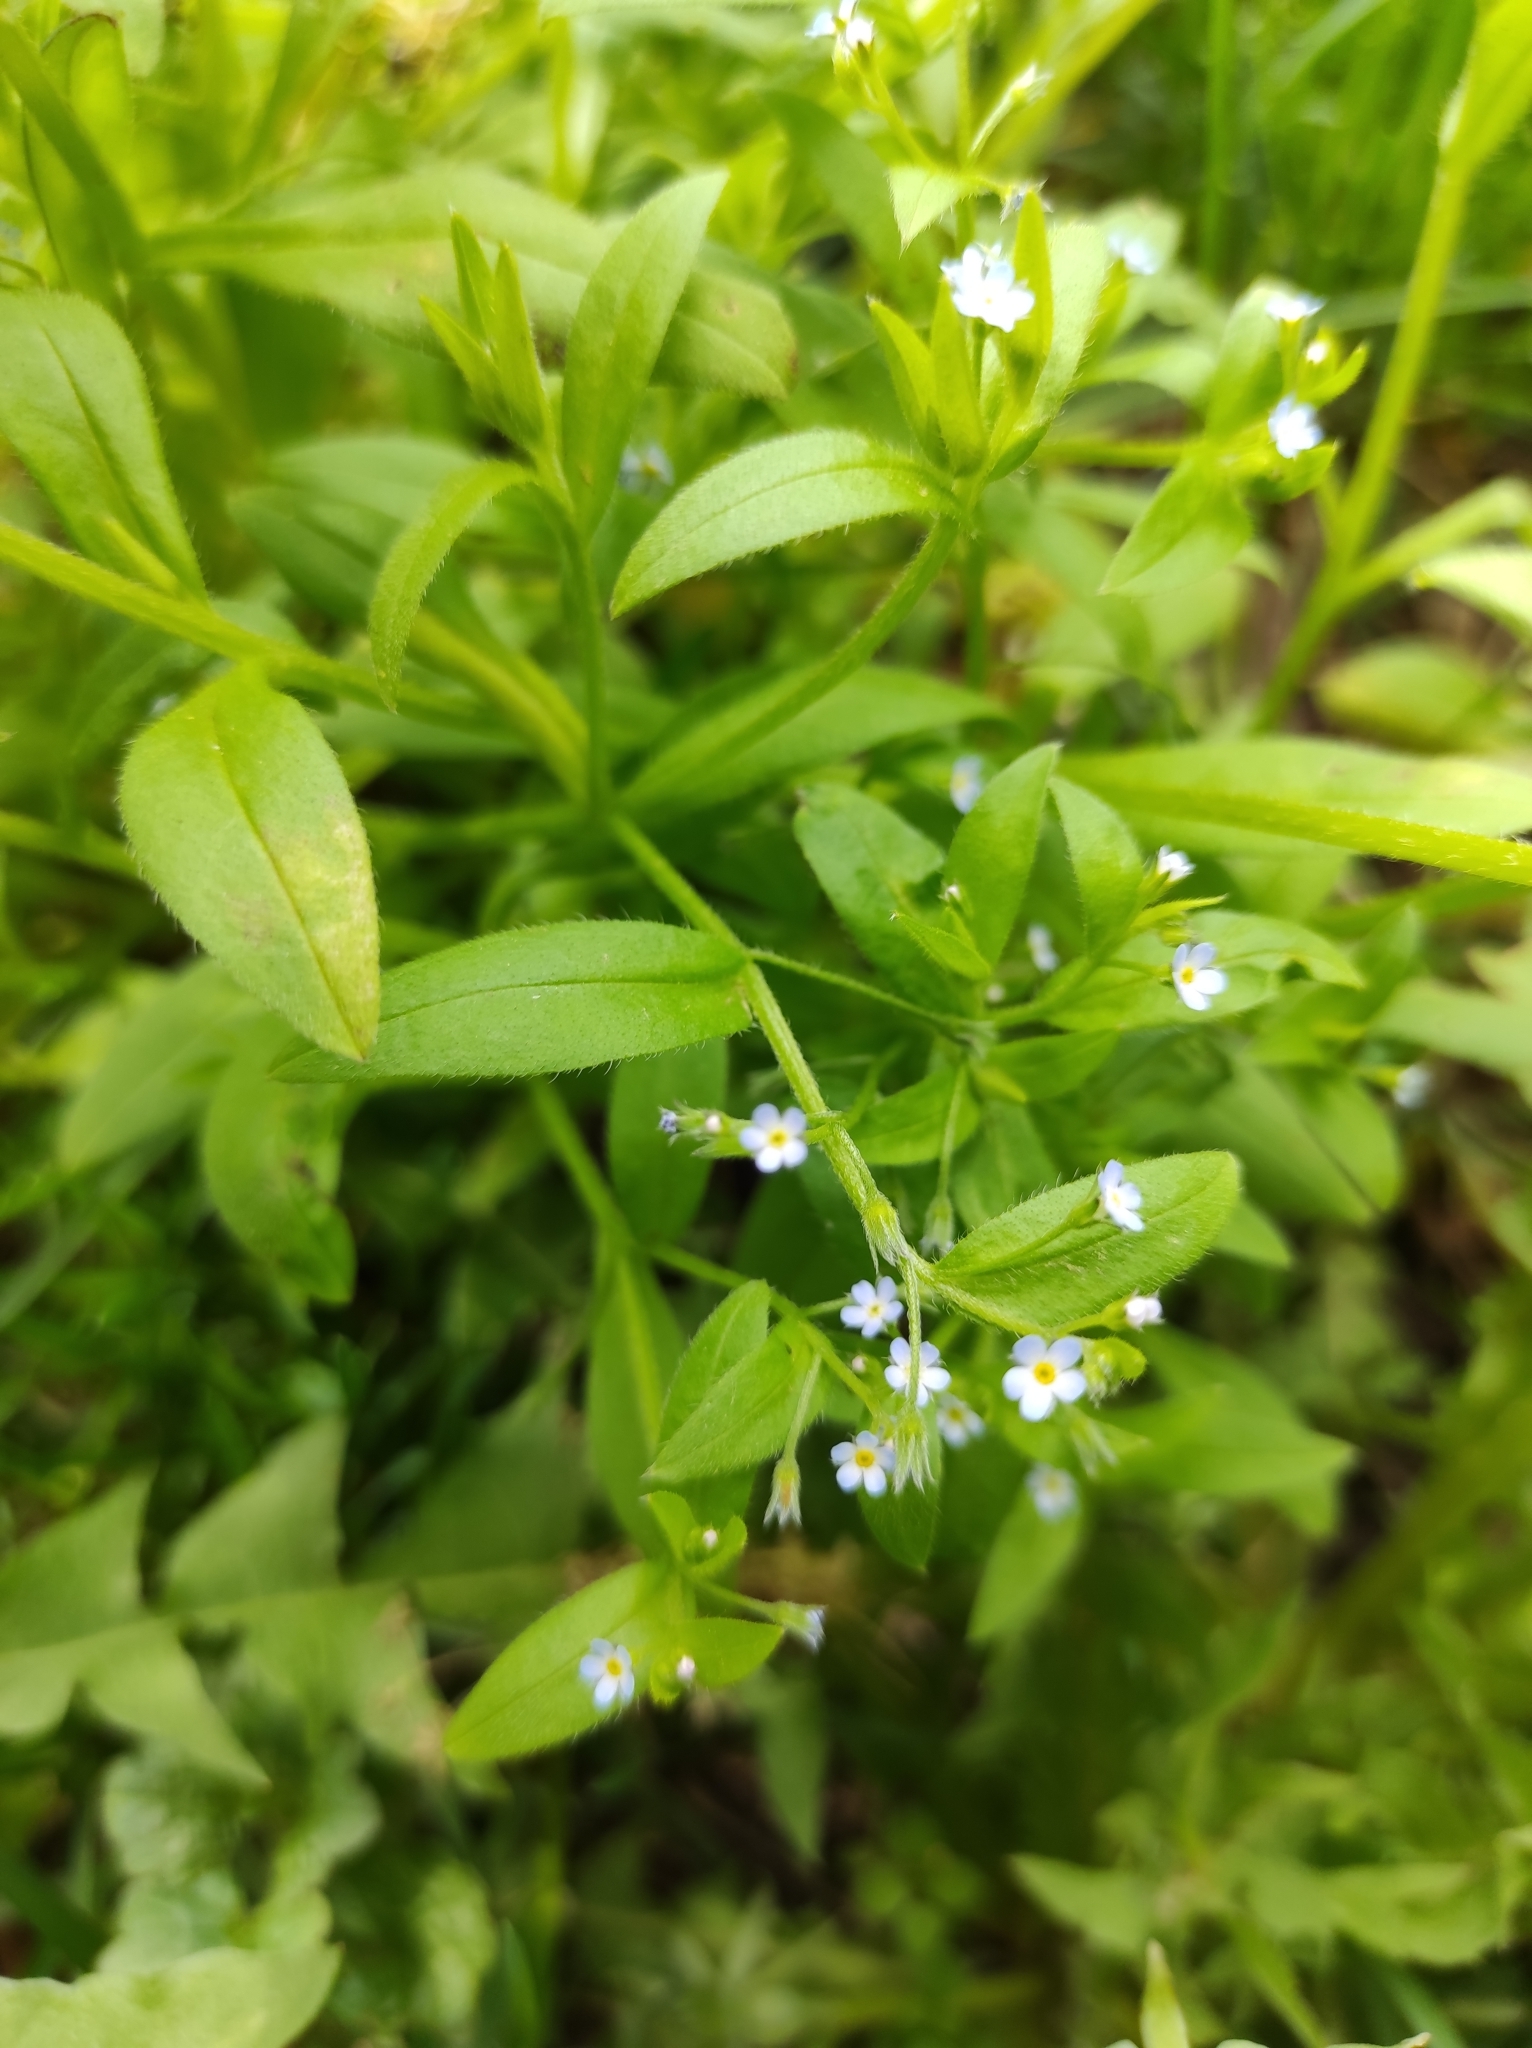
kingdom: Plantae
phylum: Tracheophyta
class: Magnoliopsida
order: Boraginales
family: Boraginaceae
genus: Myosotis
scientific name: Myosotis sparsiflora
